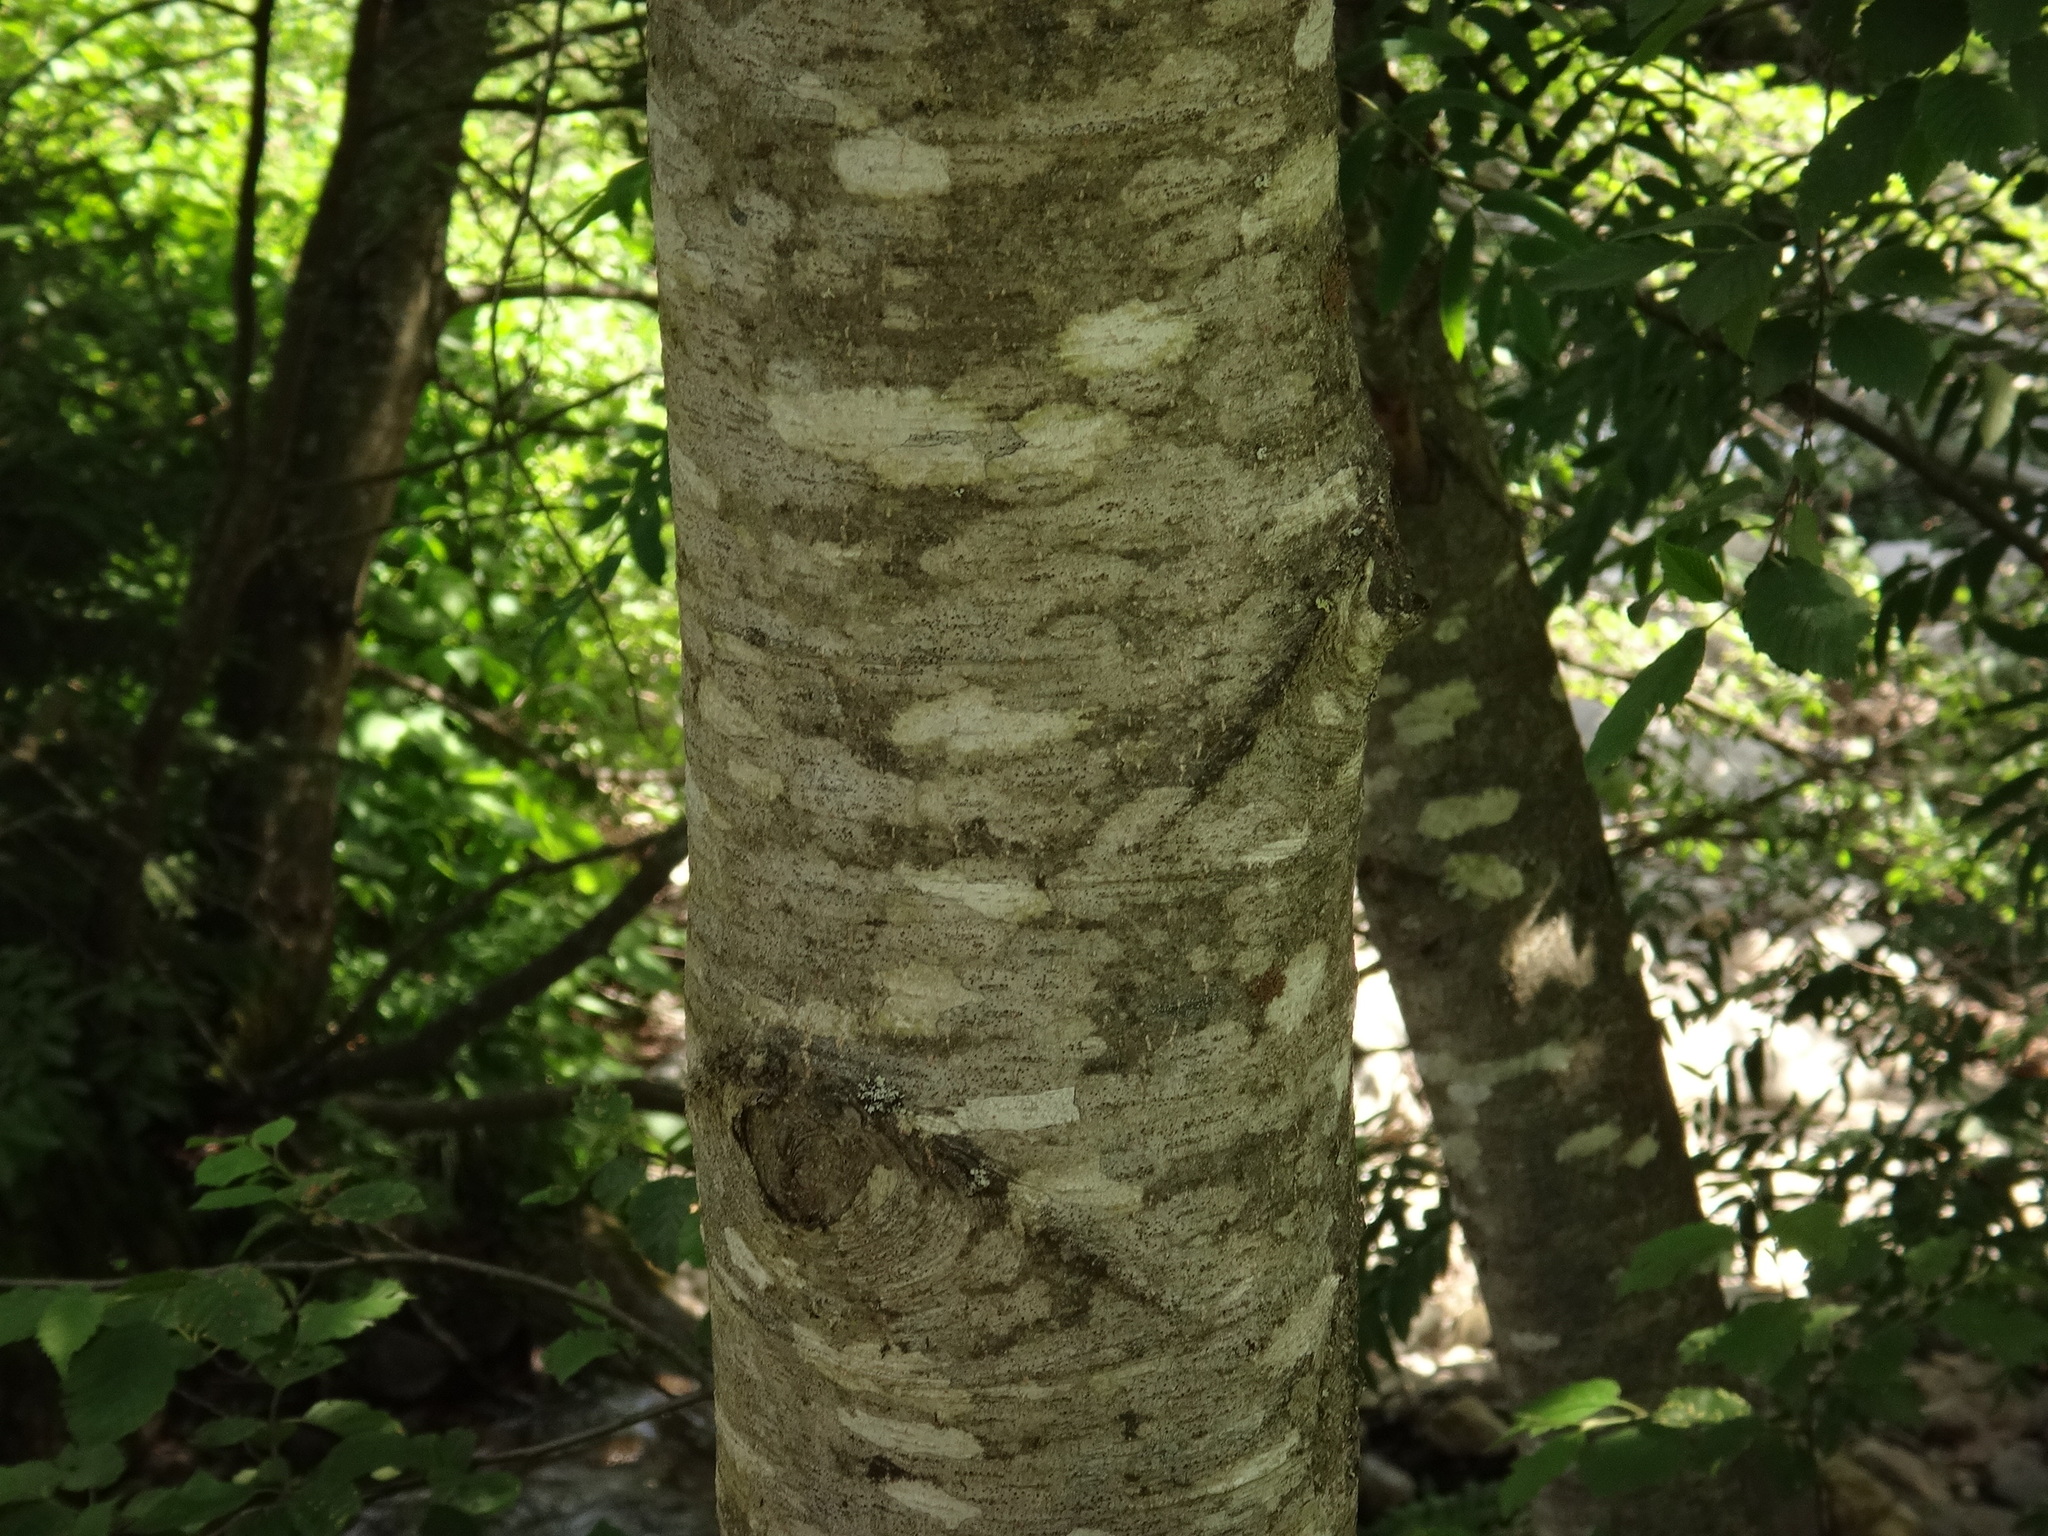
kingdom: Plantae
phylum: Tracheophyta
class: Magnoliopsida
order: Fagales
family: Betulaceae
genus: Alnus
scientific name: Alnus incana
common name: Grey alder
